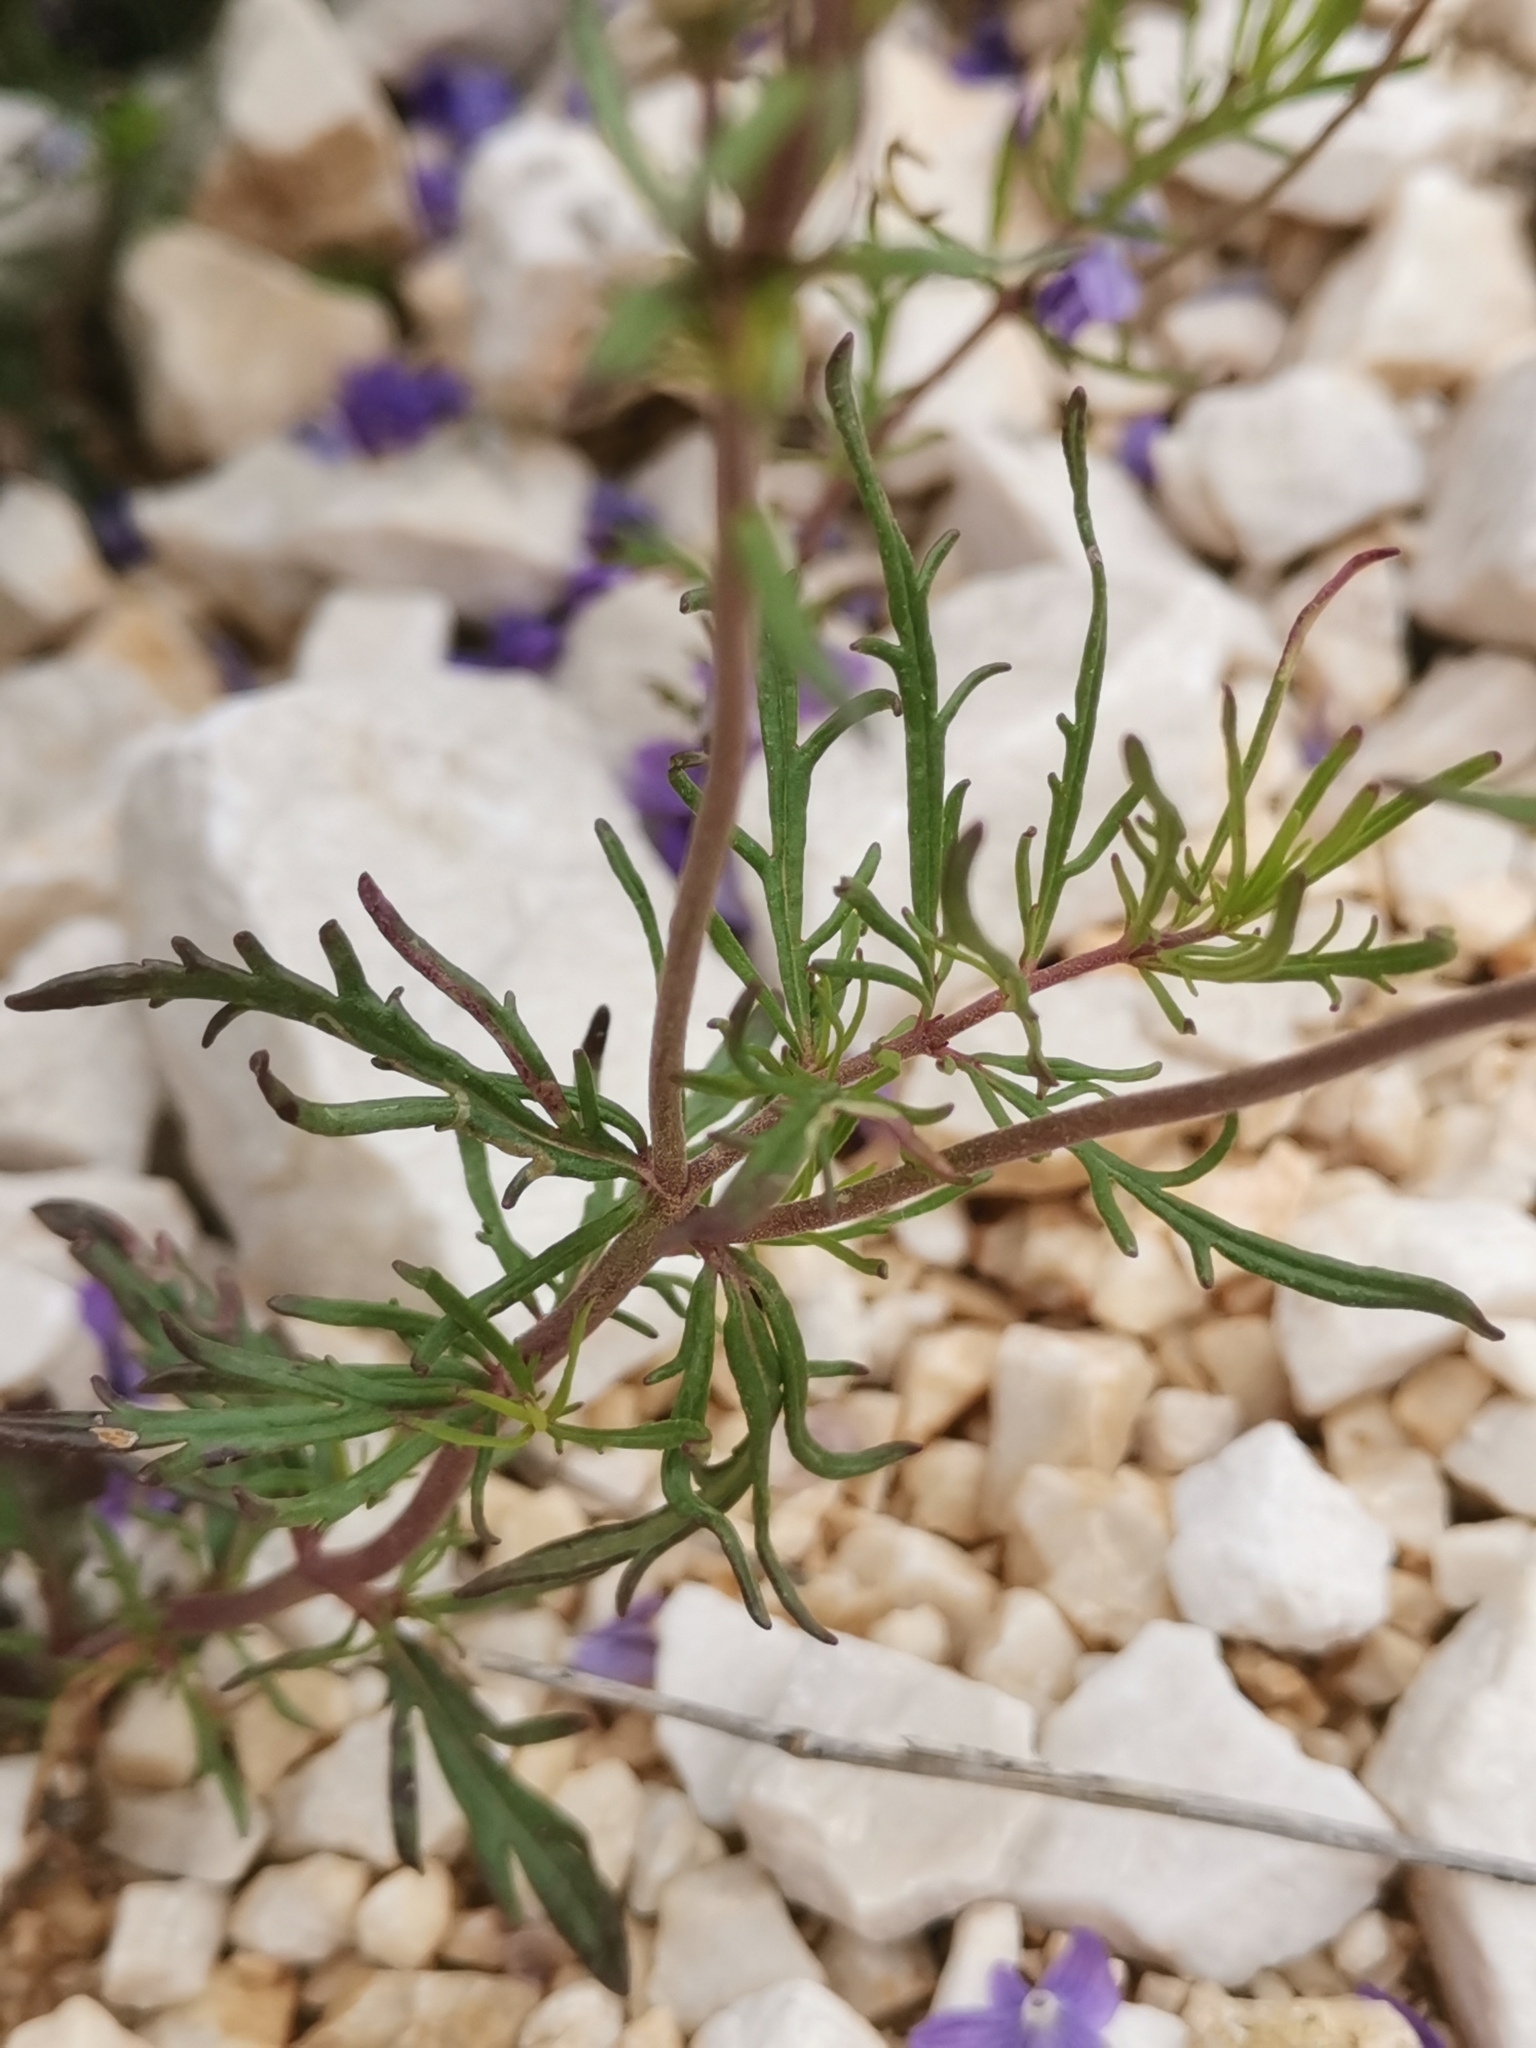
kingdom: Plantae
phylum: Tracheophyta
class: Magnoliopsida
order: Lamiales
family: Plantaginaceae
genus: Veronica
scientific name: Veronica dalmatica
